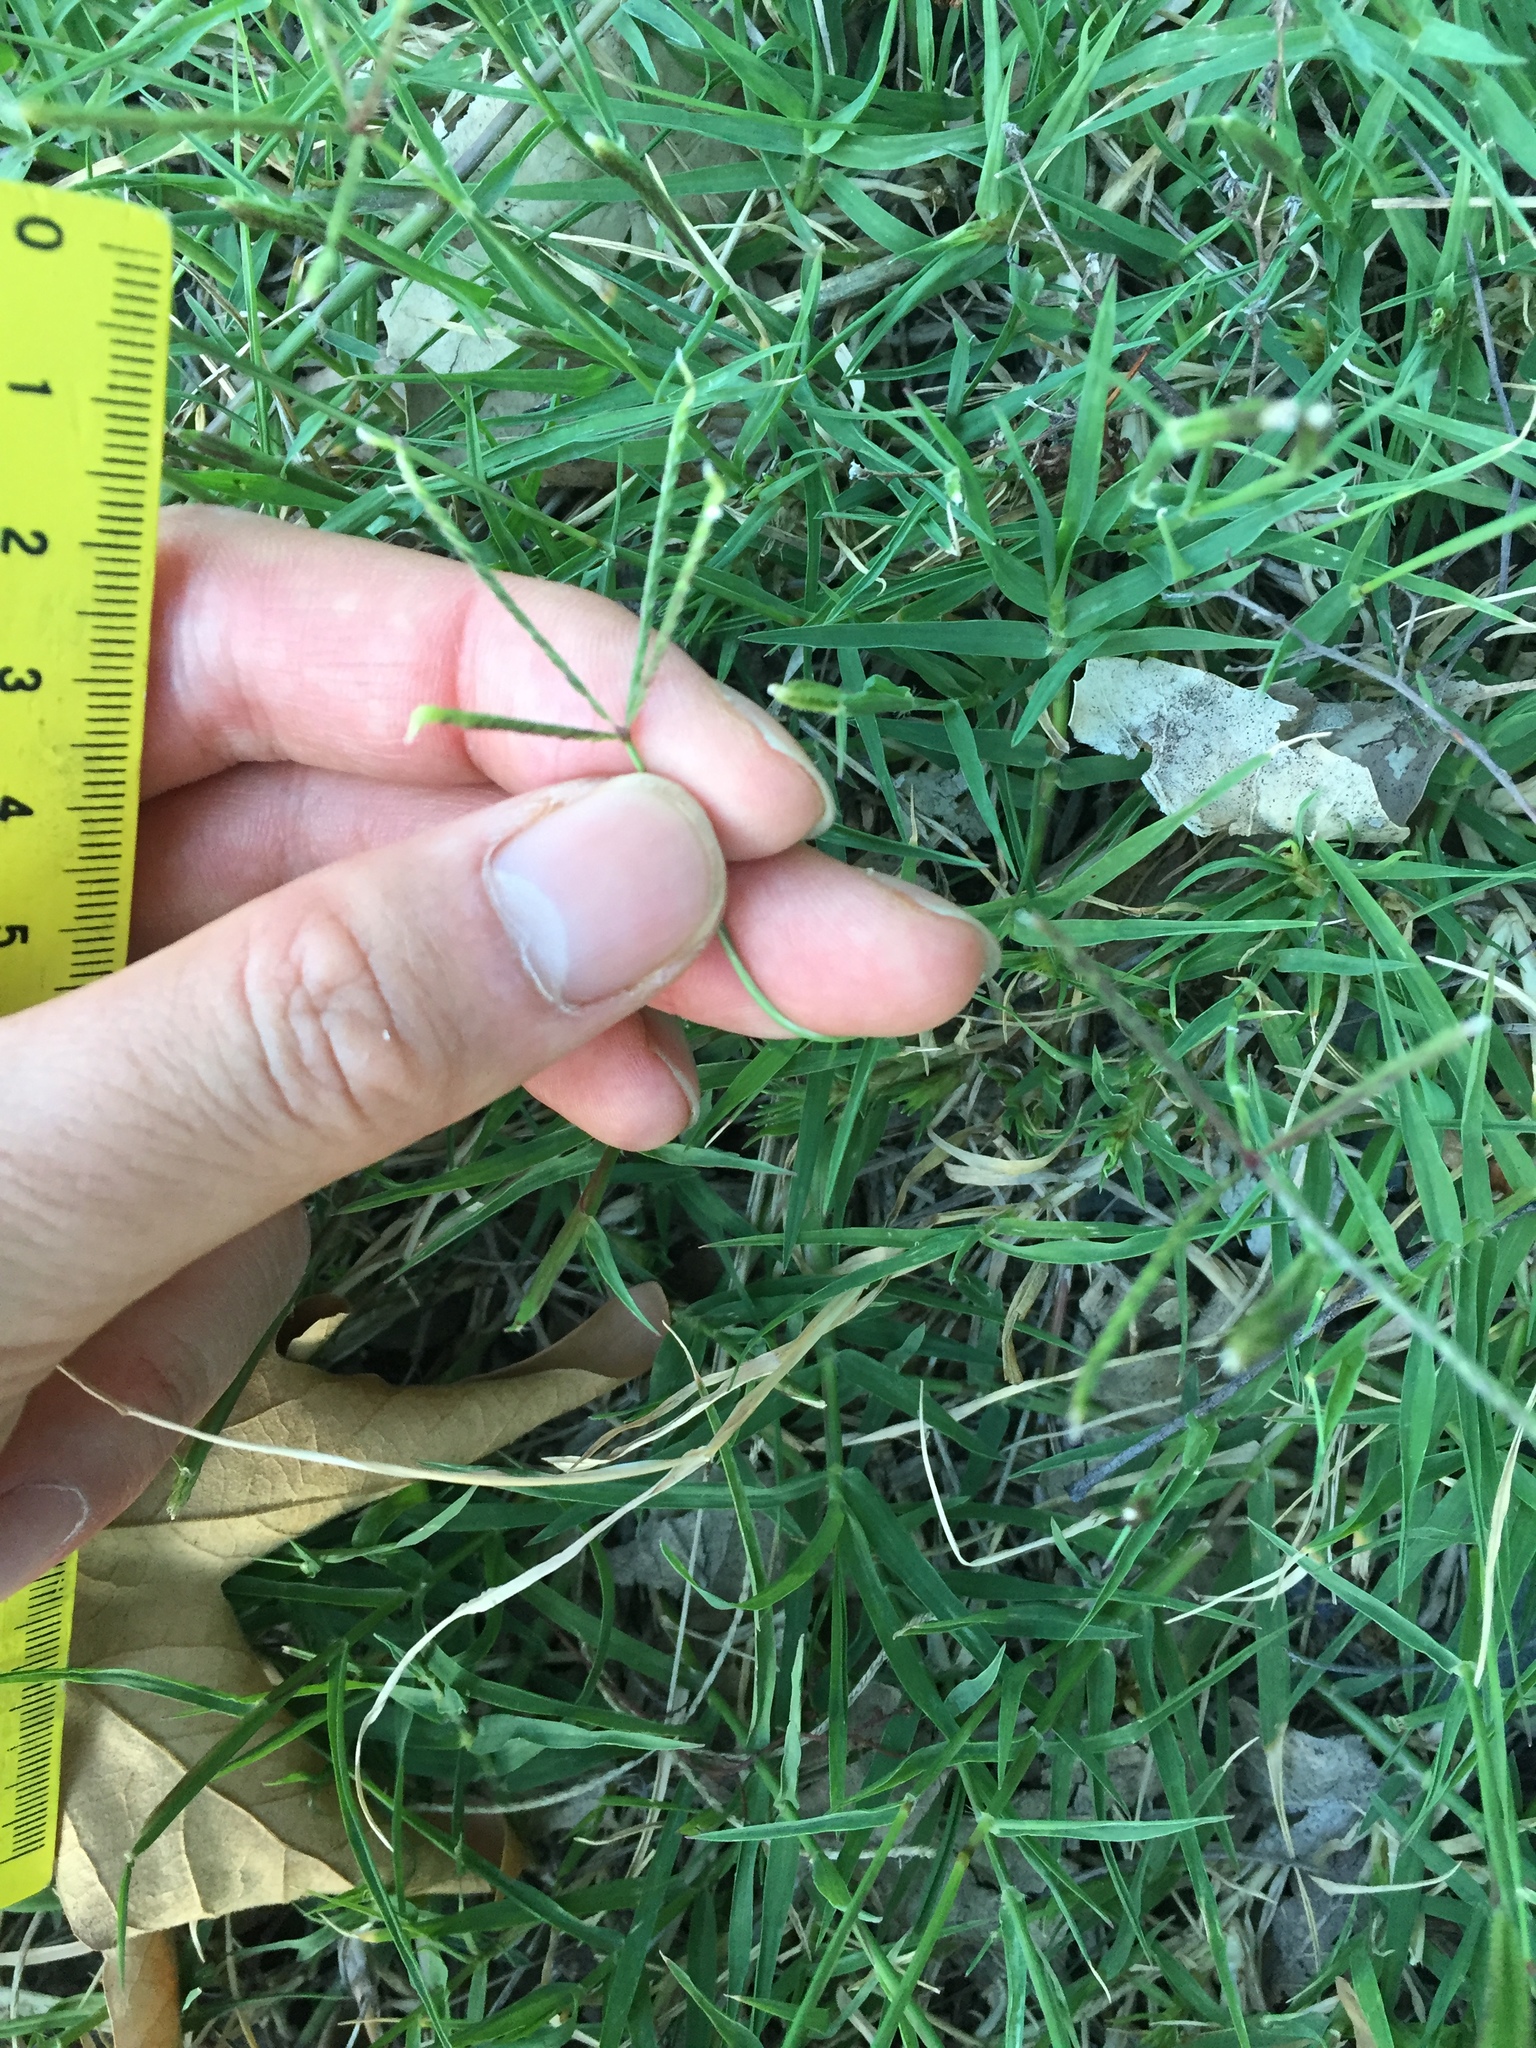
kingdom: Plantae
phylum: Tracheophyta
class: Liliopsida
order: Poales
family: Poaceae
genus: Cynodon
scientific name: Cynodon dactylon
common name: Bermuda grass
